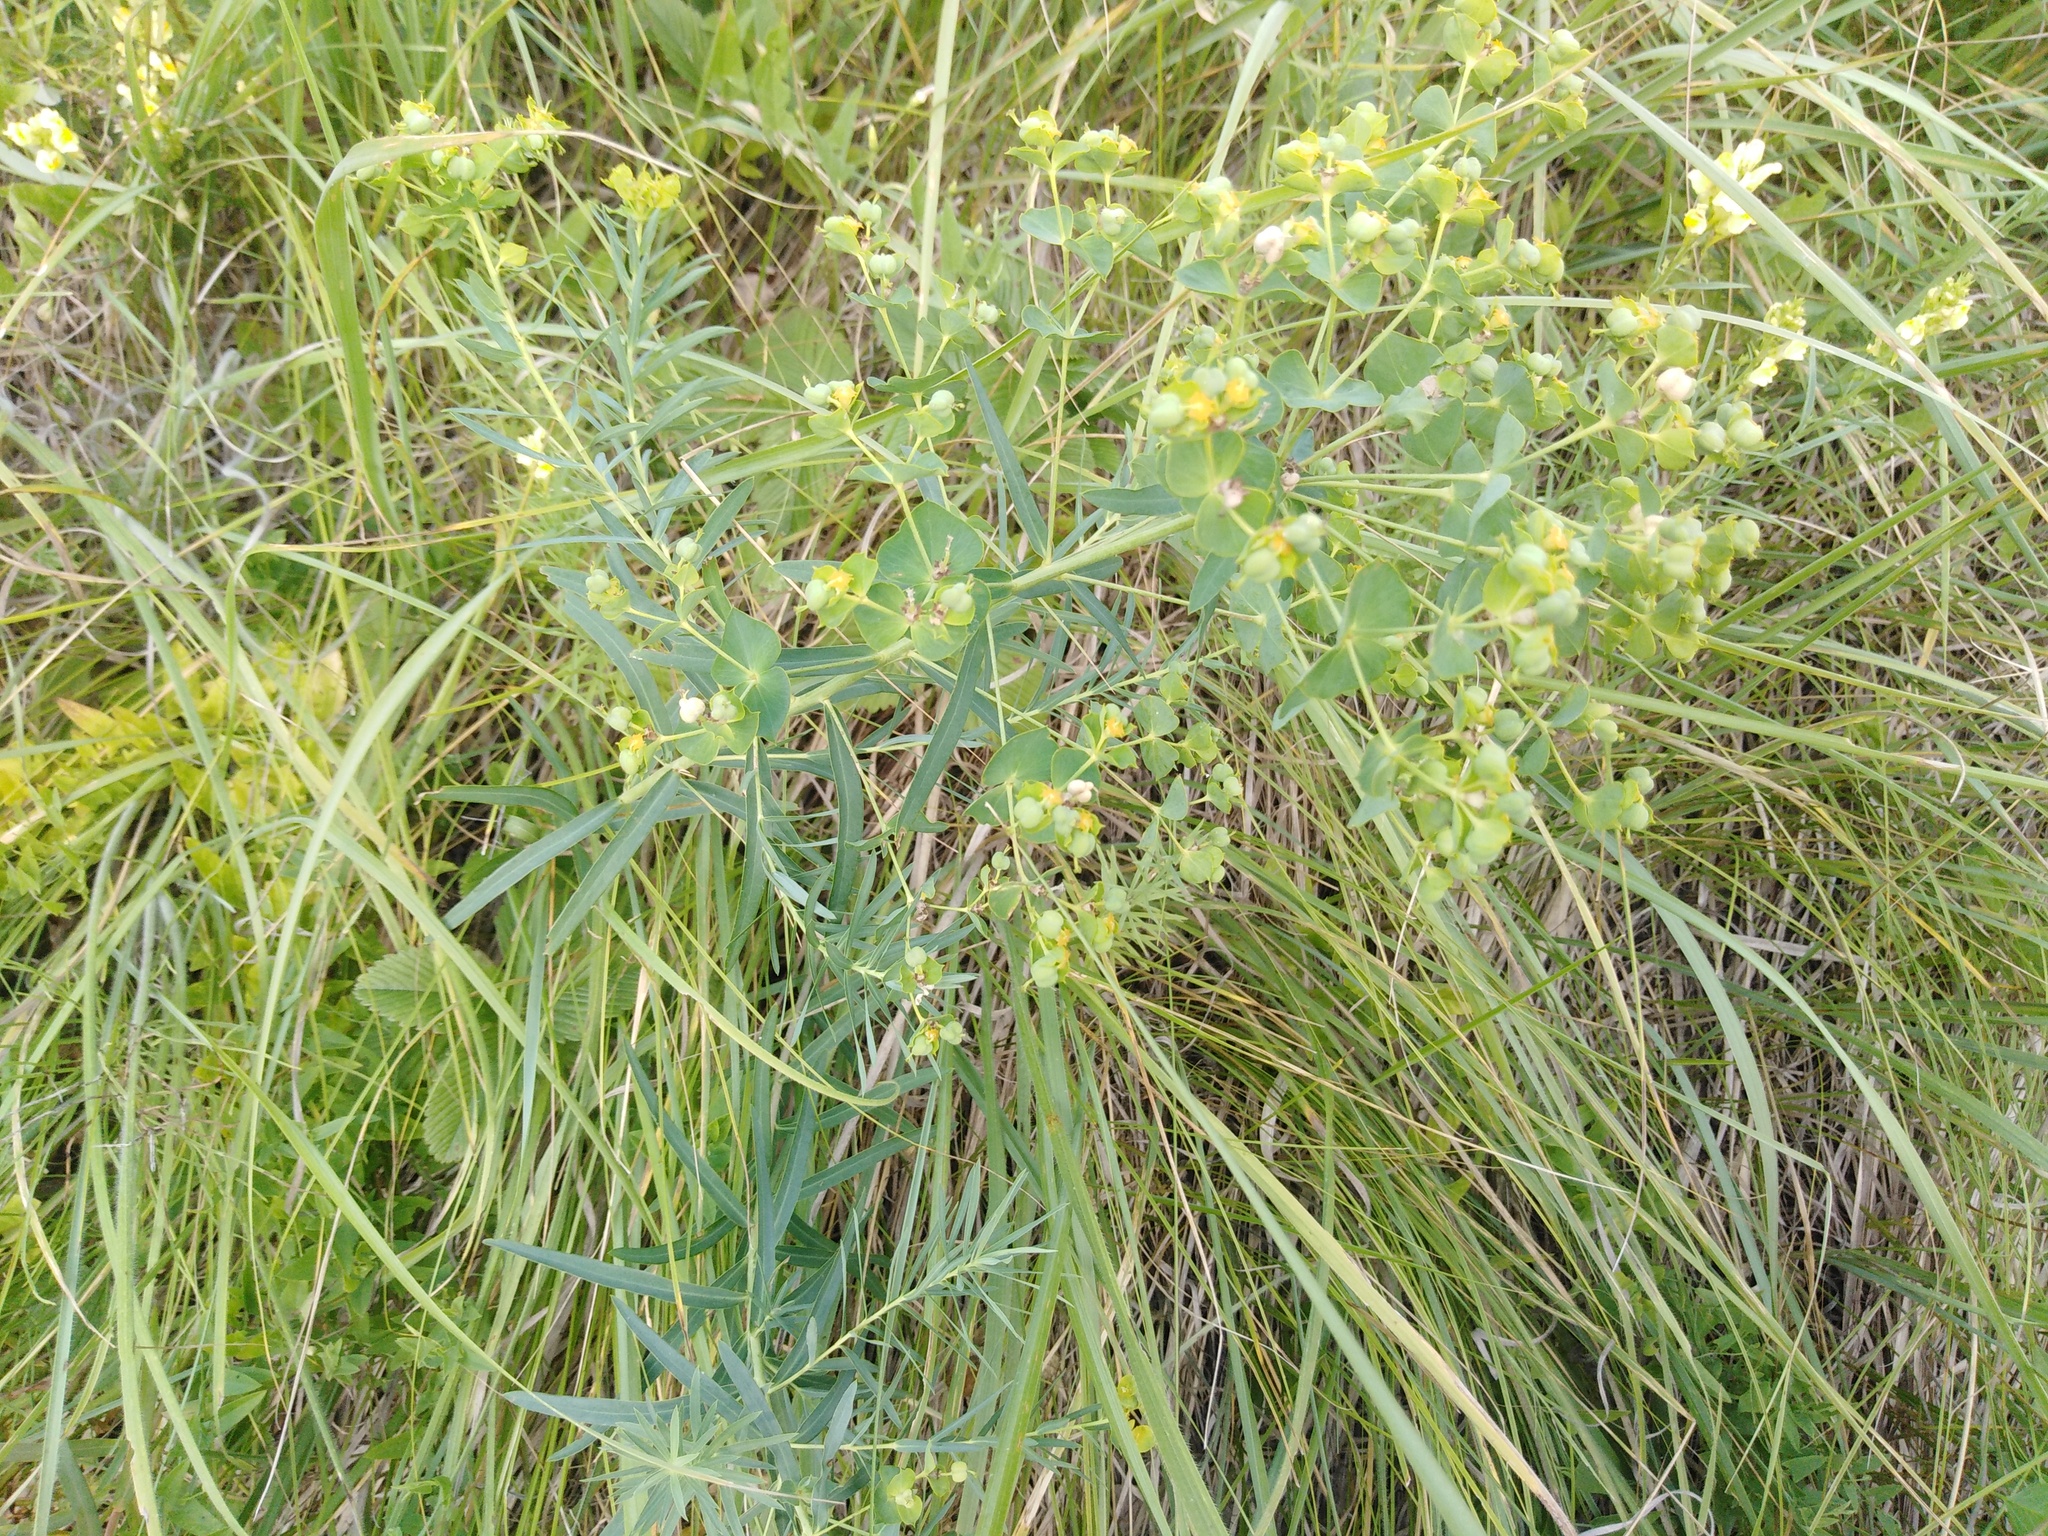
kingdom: Plantae
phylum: Tracheophyta
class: Magnoliopsida
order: Malpighiales
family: Euphorbiaceae
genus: Euphorbia
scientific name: Euphorbia virgata
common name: Leafy spurge
